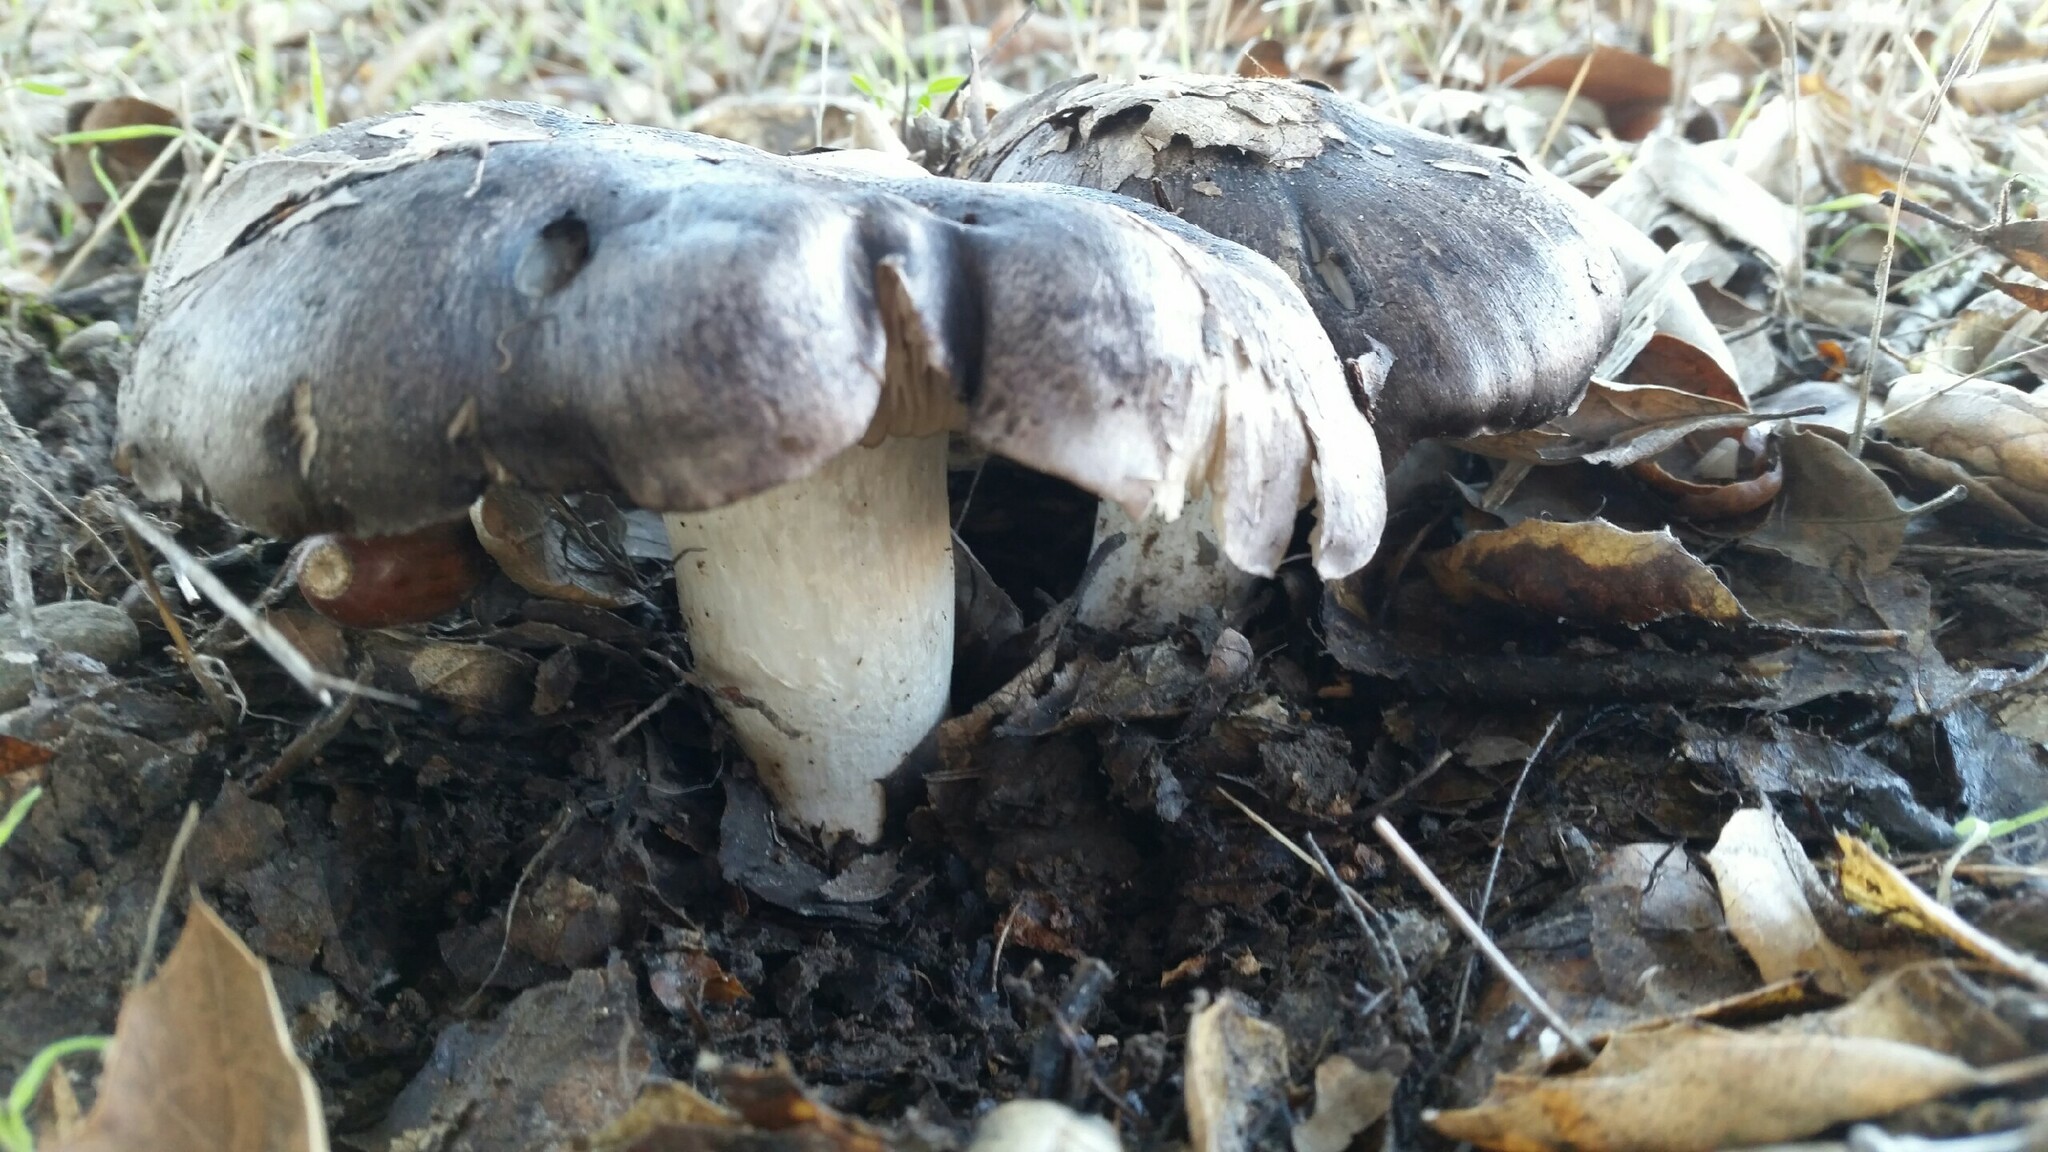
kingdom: Fungi
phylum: Basidiomycota
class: Agaricomycetes
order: Agaricales
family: Entolomataceae
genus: Entoloma
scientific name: Entoloma medianox
